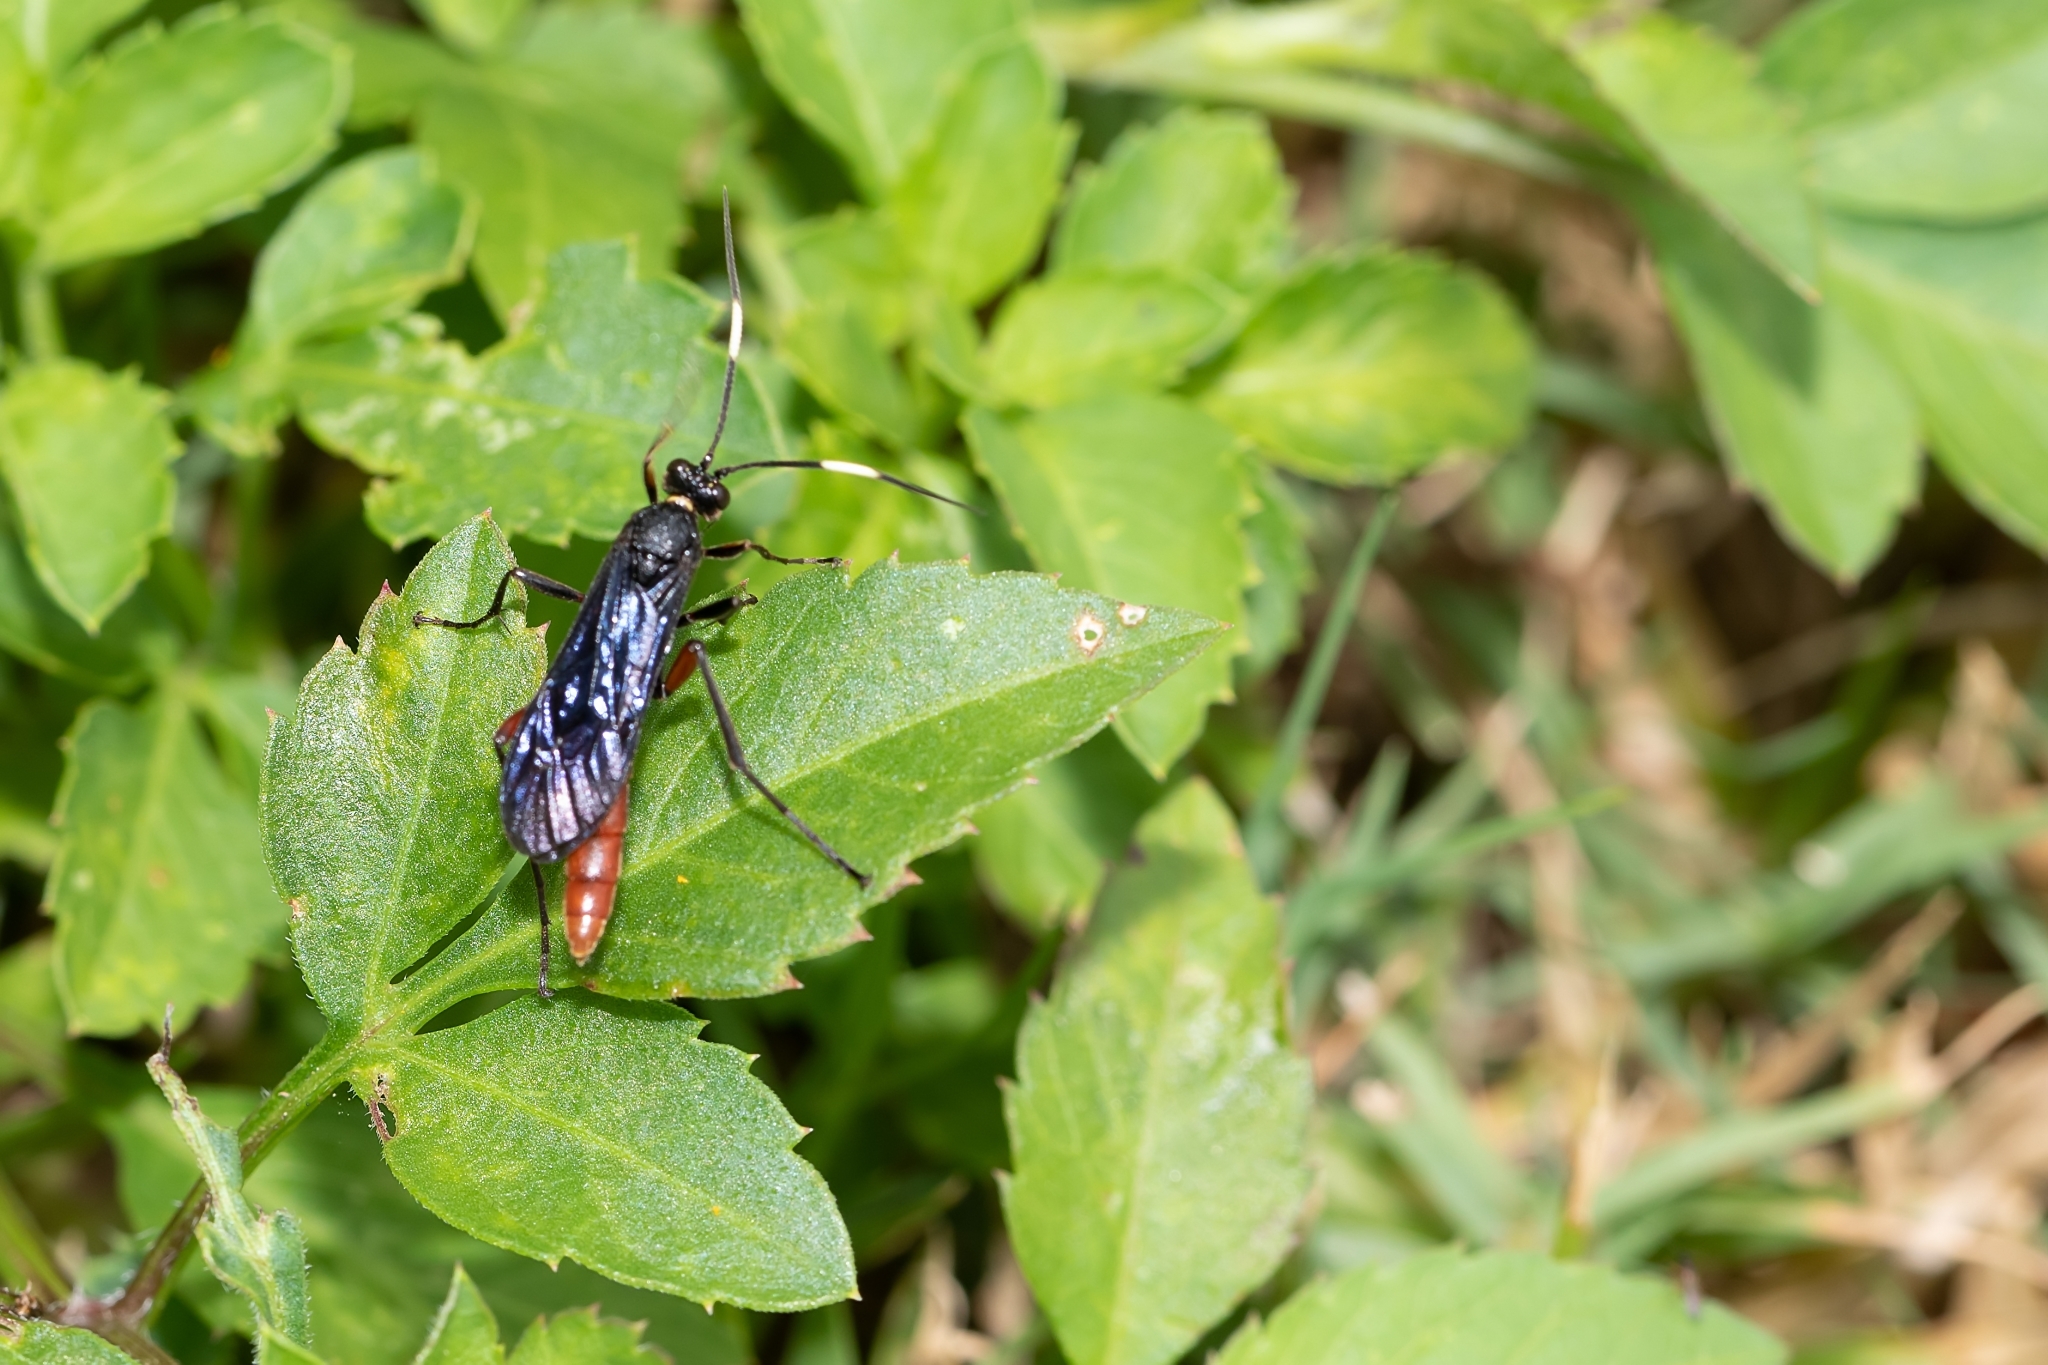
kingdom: Animalia
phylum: Arthropoda
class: Insecta
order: Hymenoptera
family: Ichneumonidae
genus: Limonethe
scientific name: Limonethe maurator
